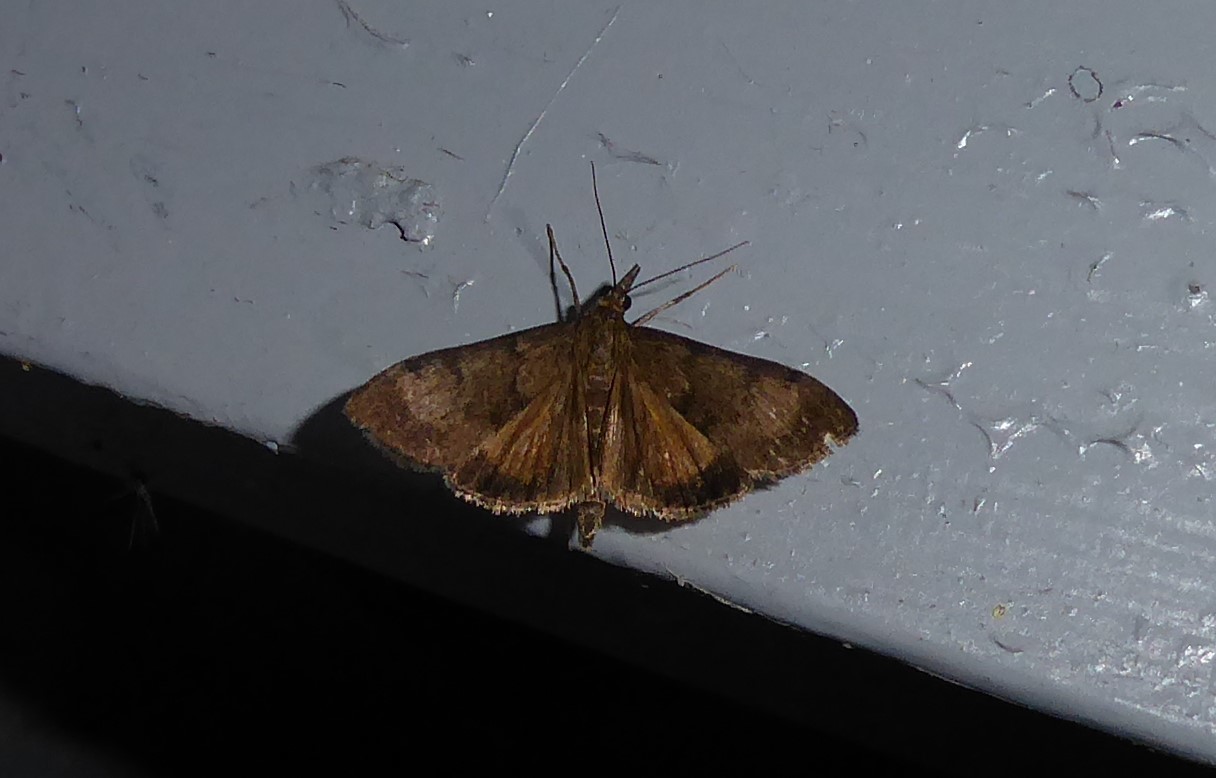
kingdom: Animalia
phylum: Arthropoda
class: Insecta
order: Lepidoptera
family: Crambidae
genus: Uresiphita
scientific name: Uresiphita
